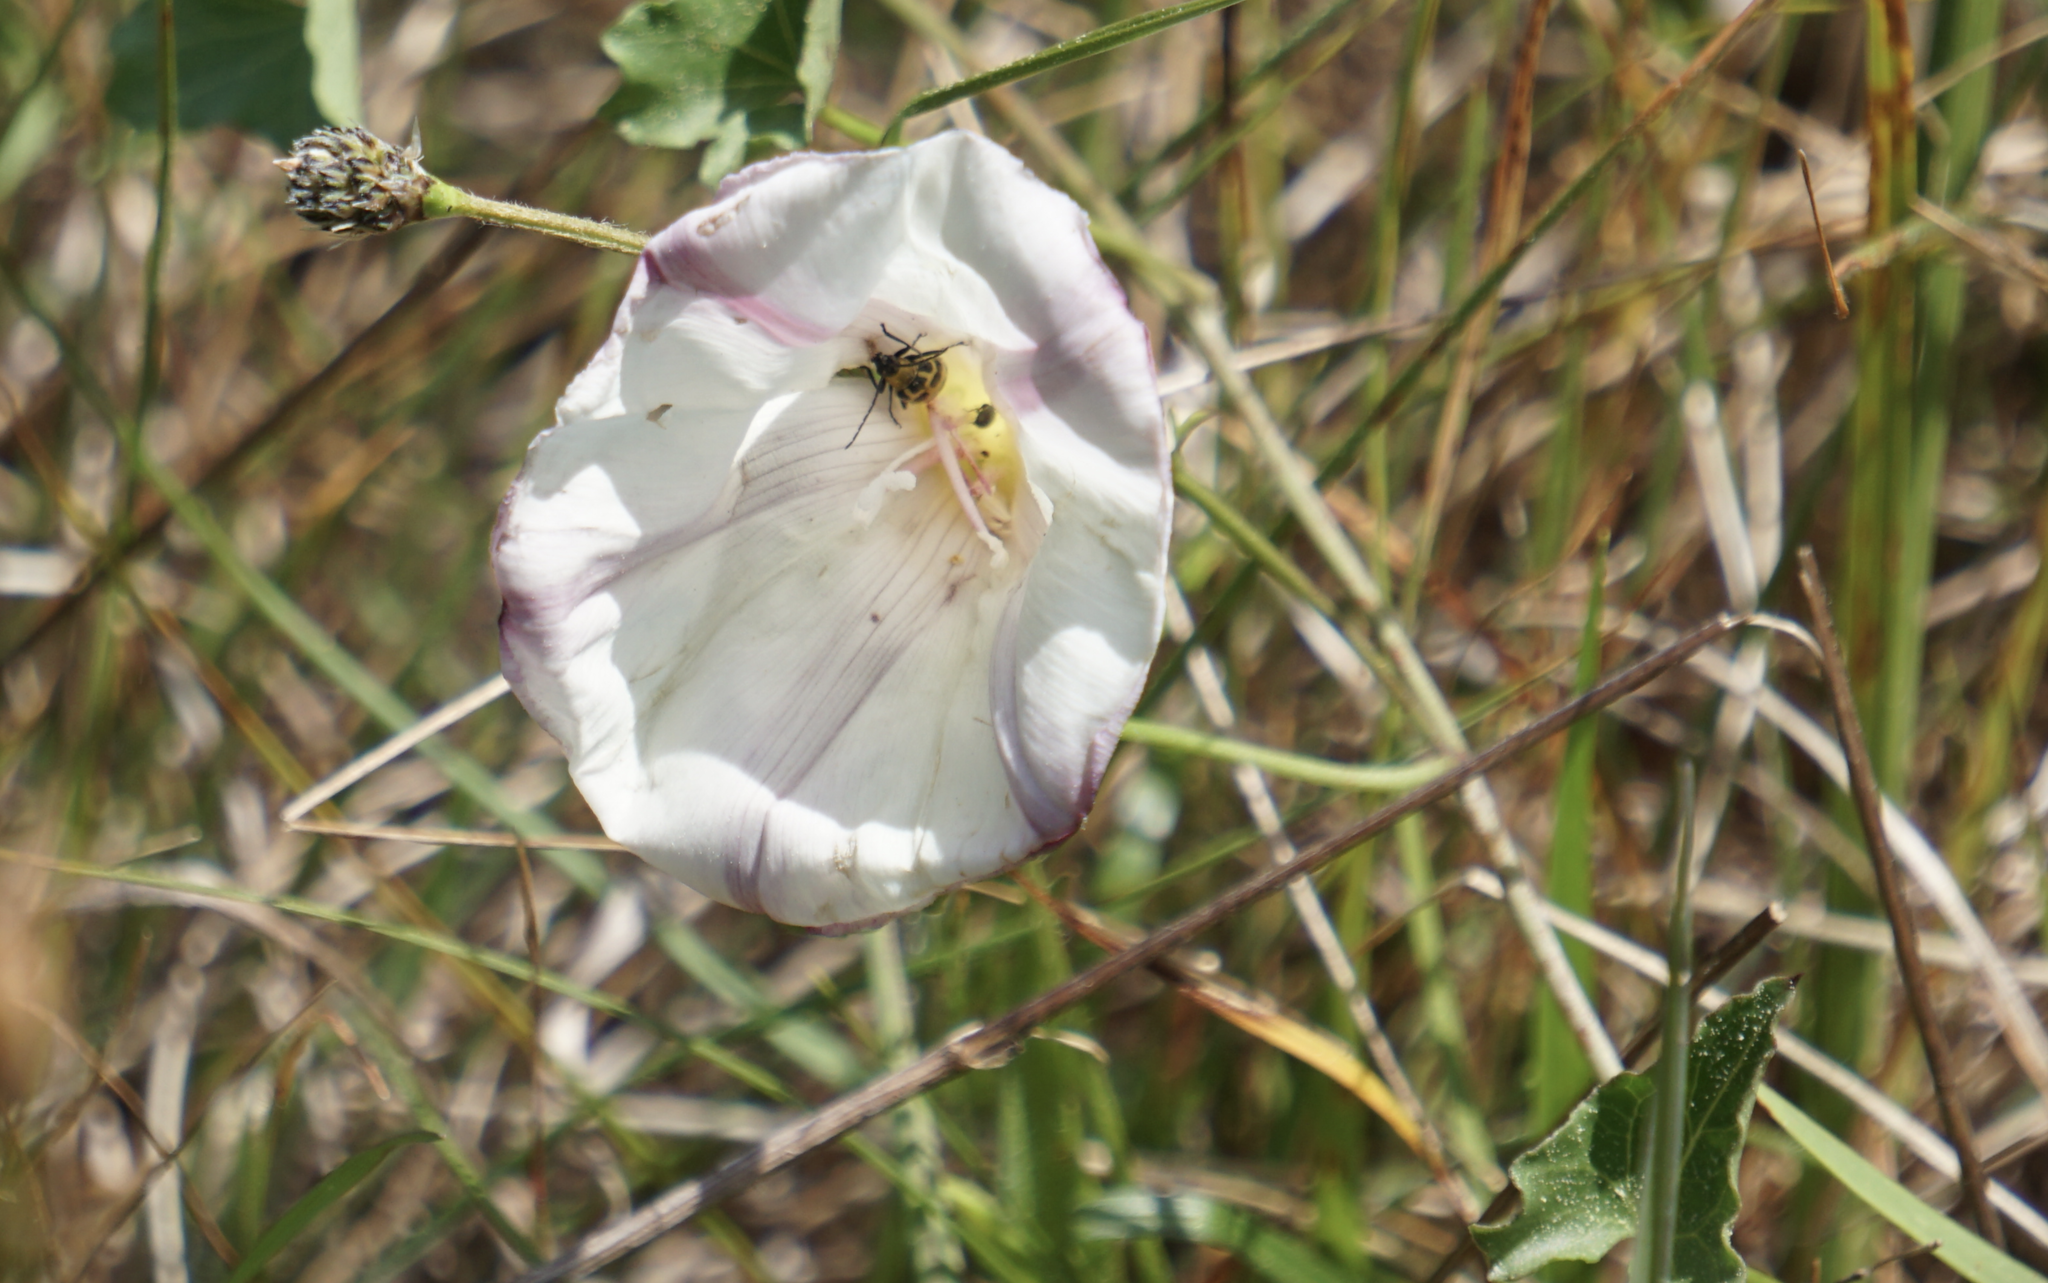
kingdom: Plantae
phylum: Tracheophyta
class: Magnoliopsida
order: Solanales
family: Convolvulaceae
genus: Calystegia
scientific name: Calystegia purpurata
